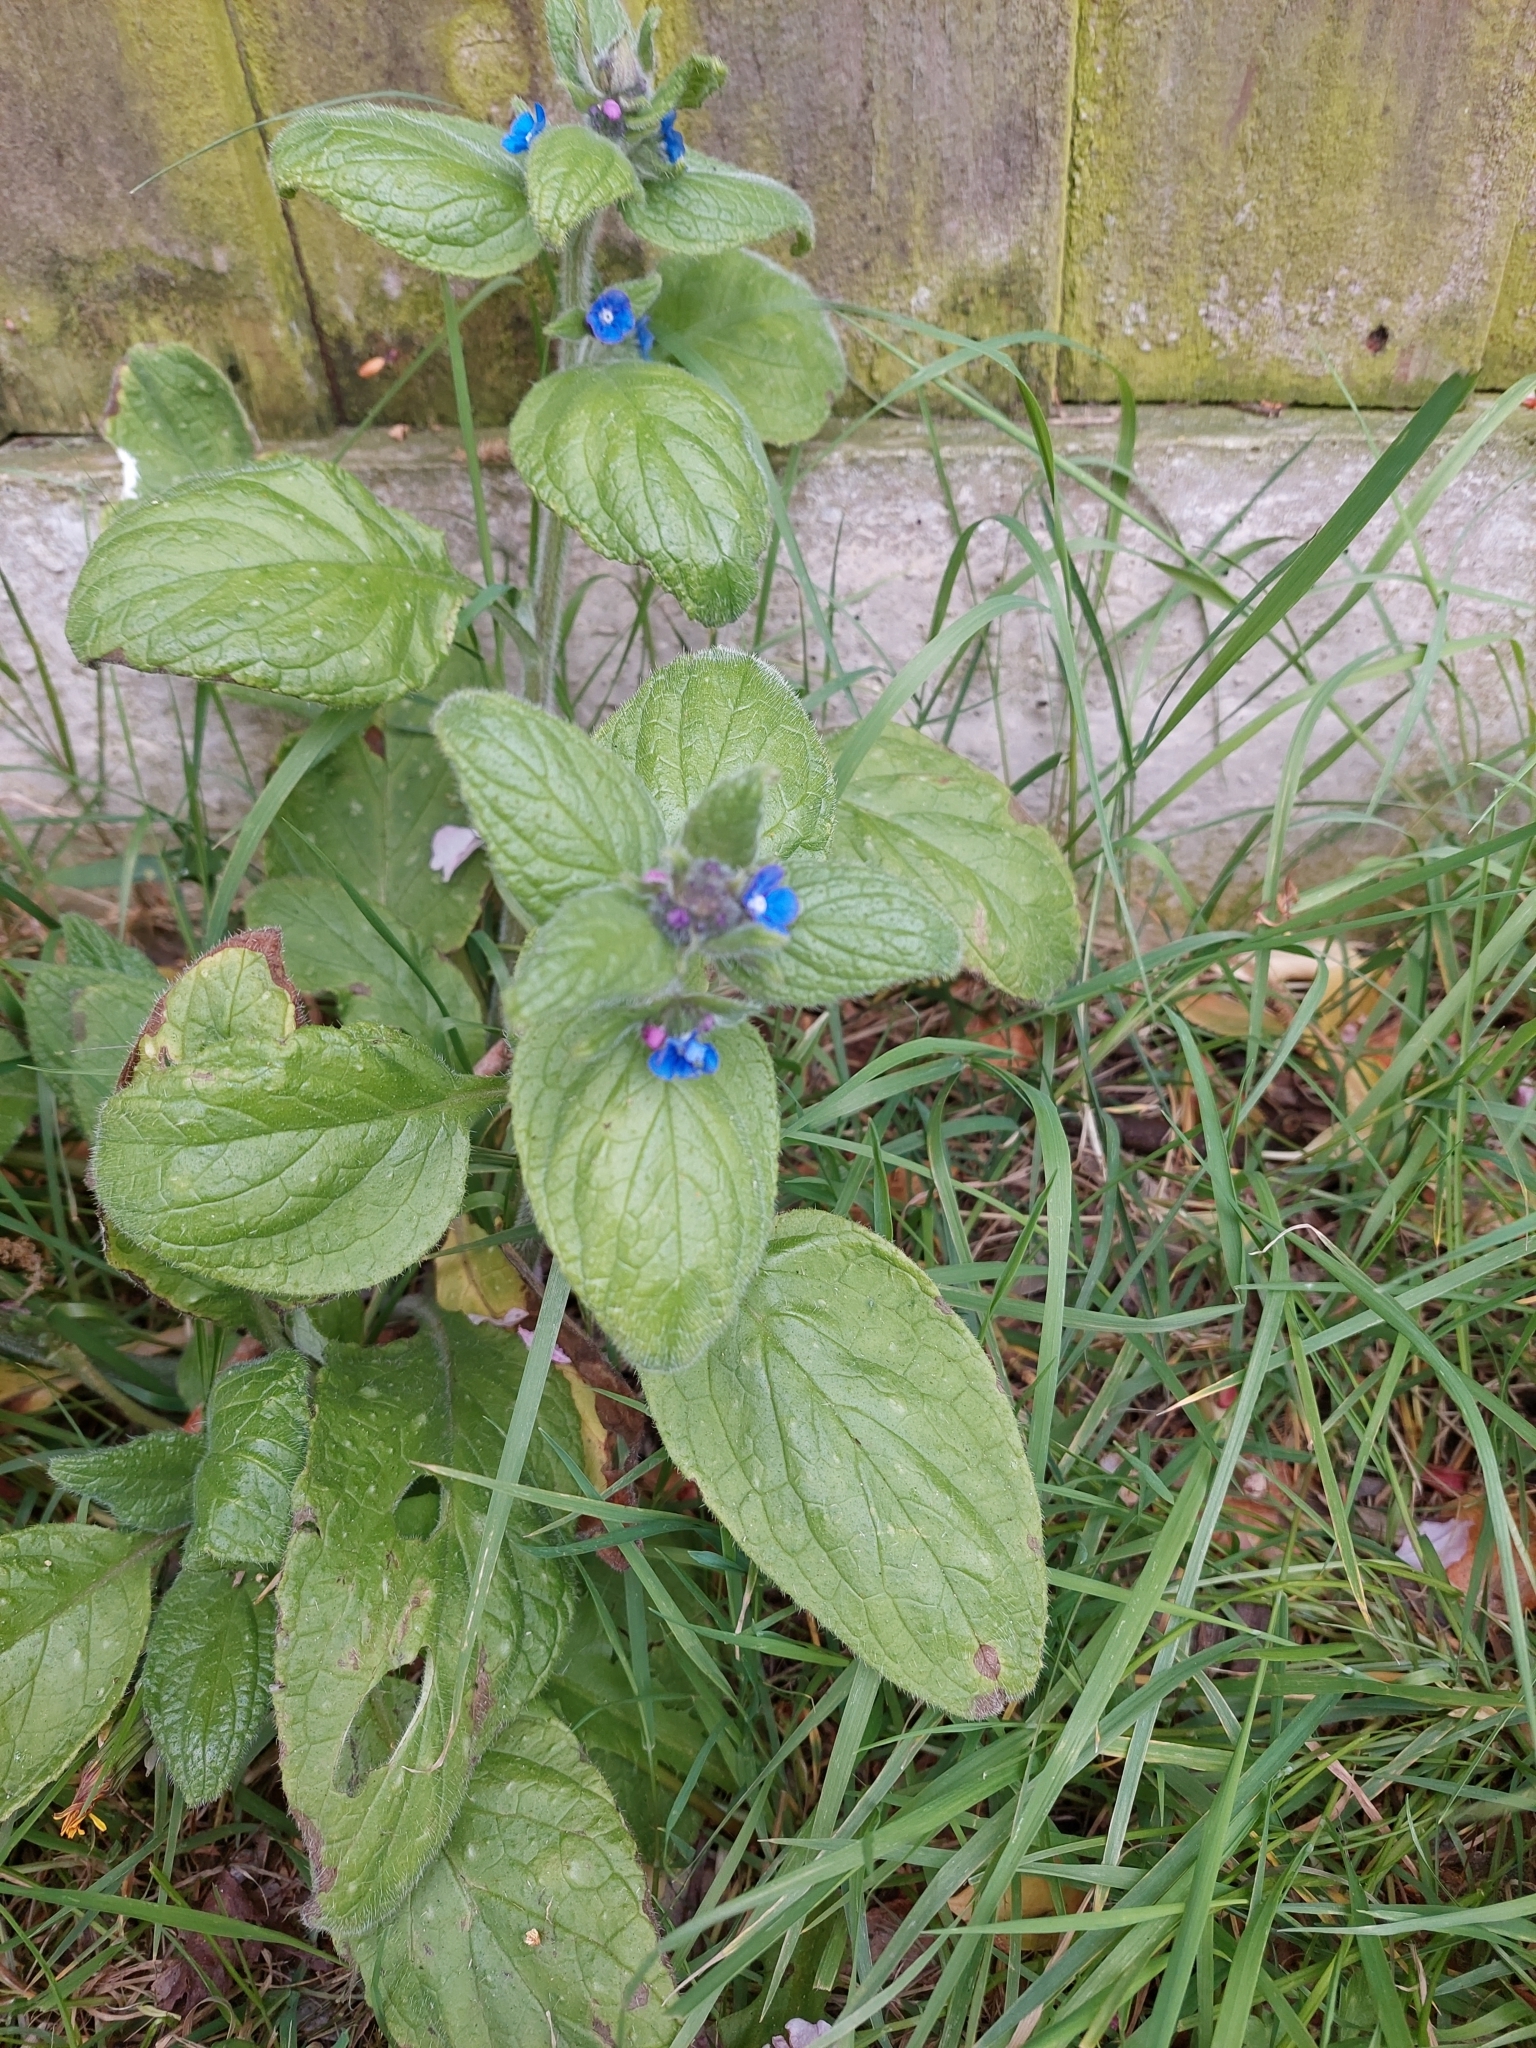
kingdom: Plantae
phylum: Tracheophyta
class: Magnoliopsida
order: Boraginales
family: Boraginaceae
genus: Pentaglottis
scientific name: Pentaglottis sempervirens
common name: Green alkanet
